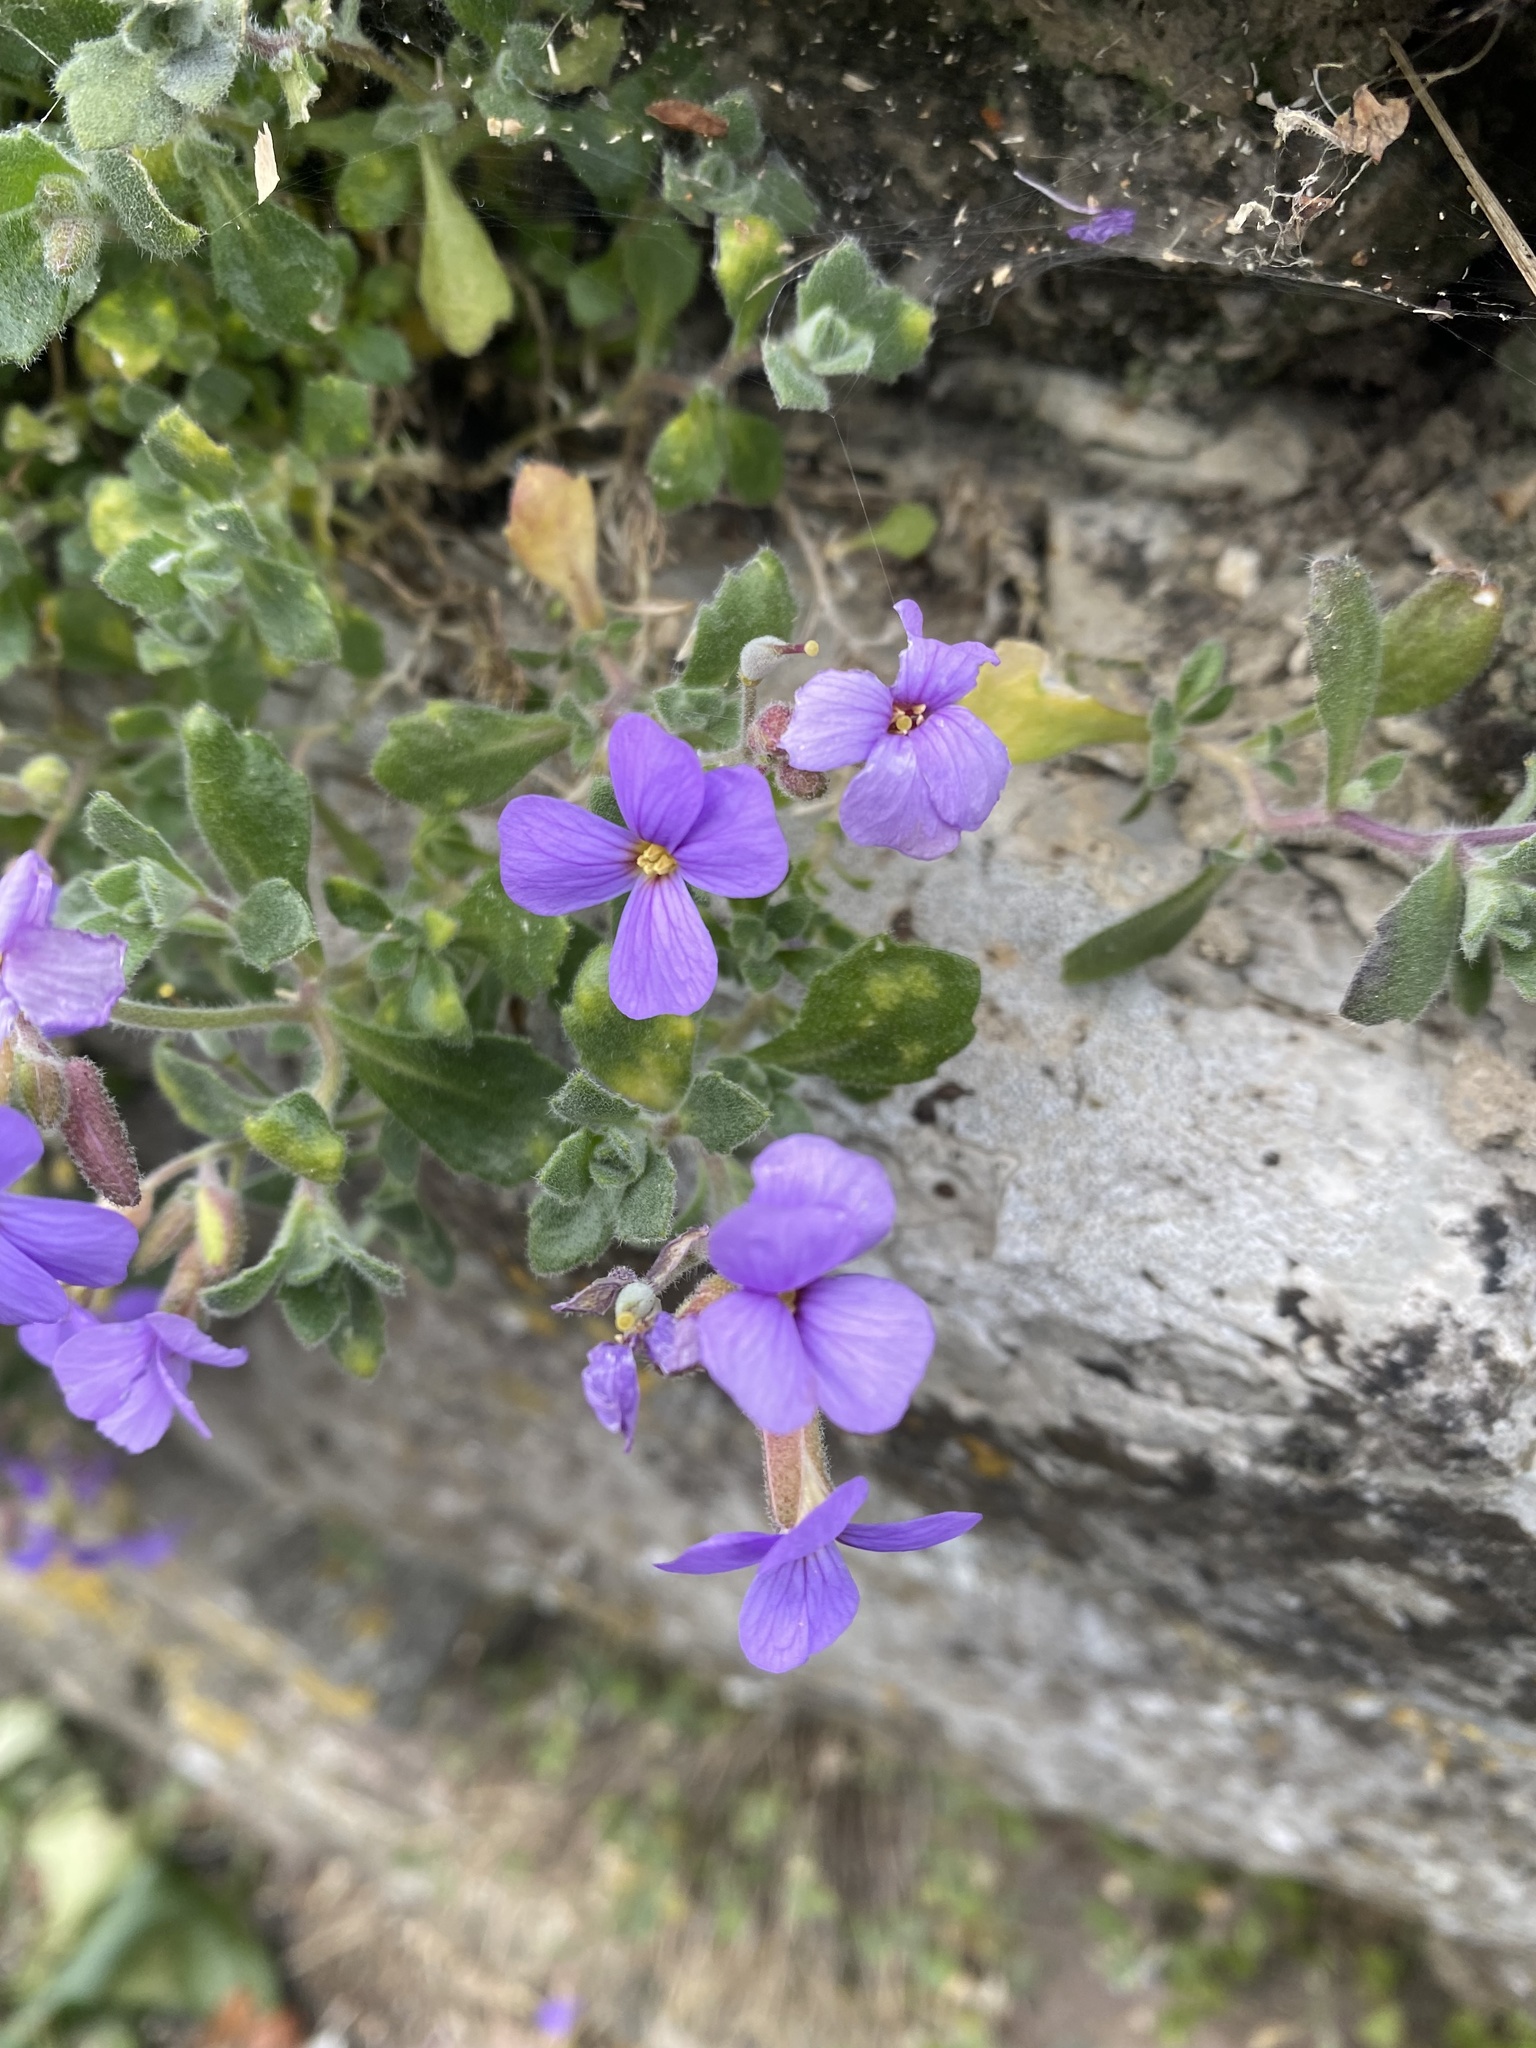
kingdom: Plantae
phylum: Tracheophyta
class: Magnoliopsida
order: Brassicales
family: Brassicaceae
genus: Aubrieta
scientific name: Aubrieta deltoidea
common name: Aubretia
